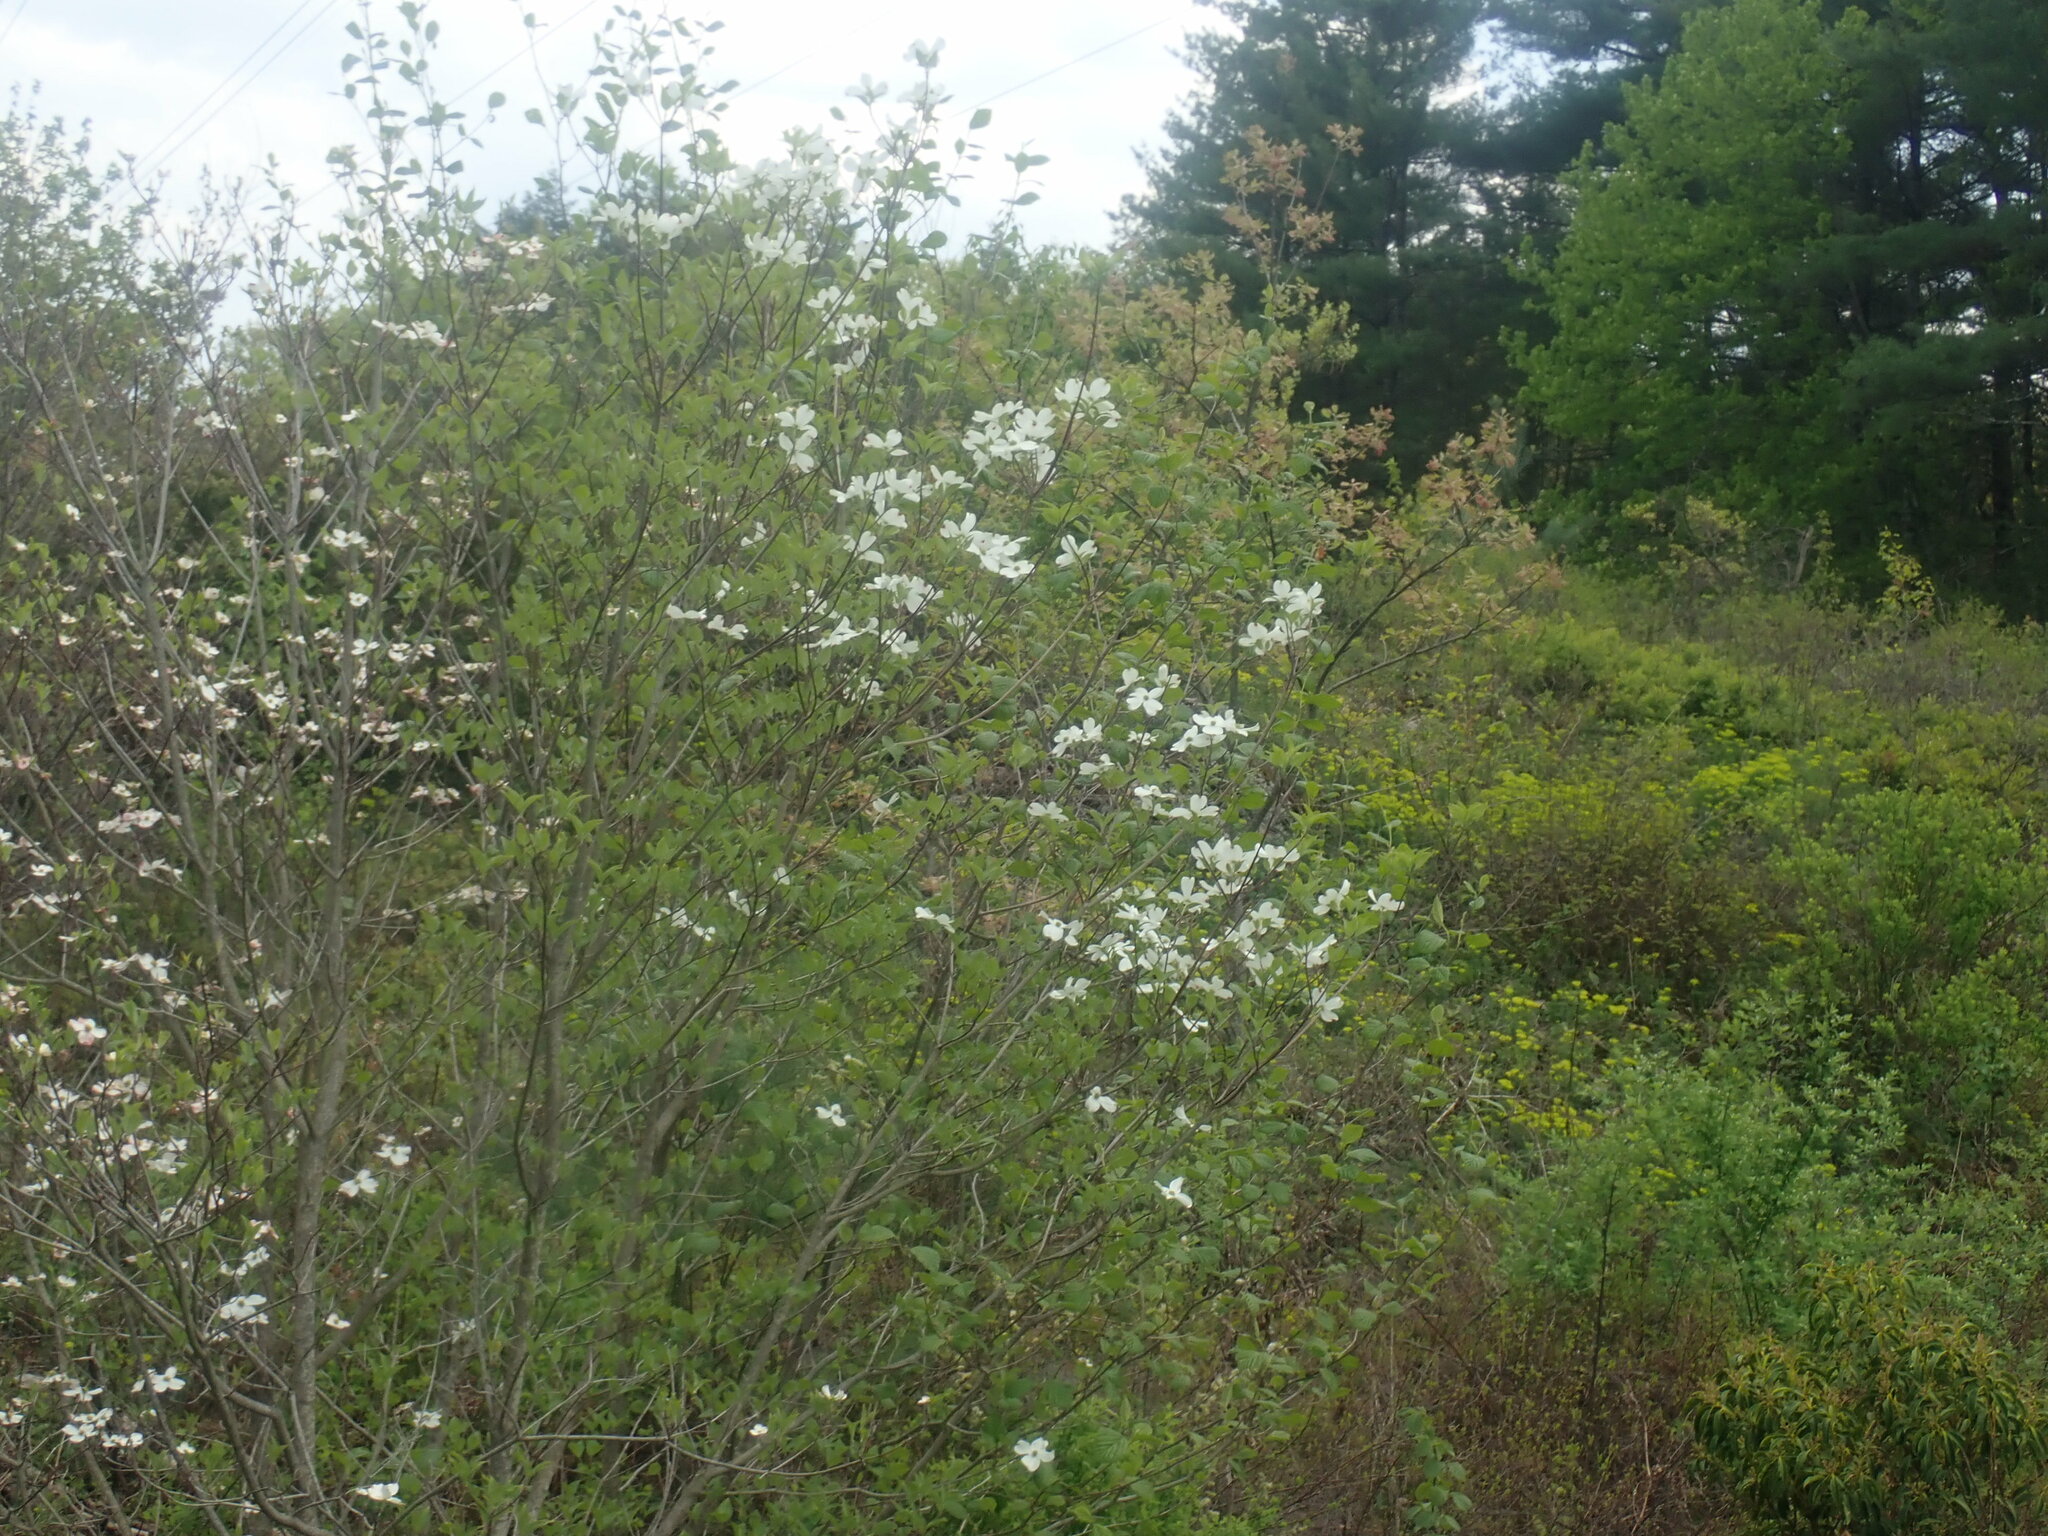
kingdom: Plantae
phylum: Tracheophyta
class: Magnoliopsida
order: Cornales
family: Cornaceae
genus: Cornus
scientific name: Cornus florida
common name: Flowering dogwood
